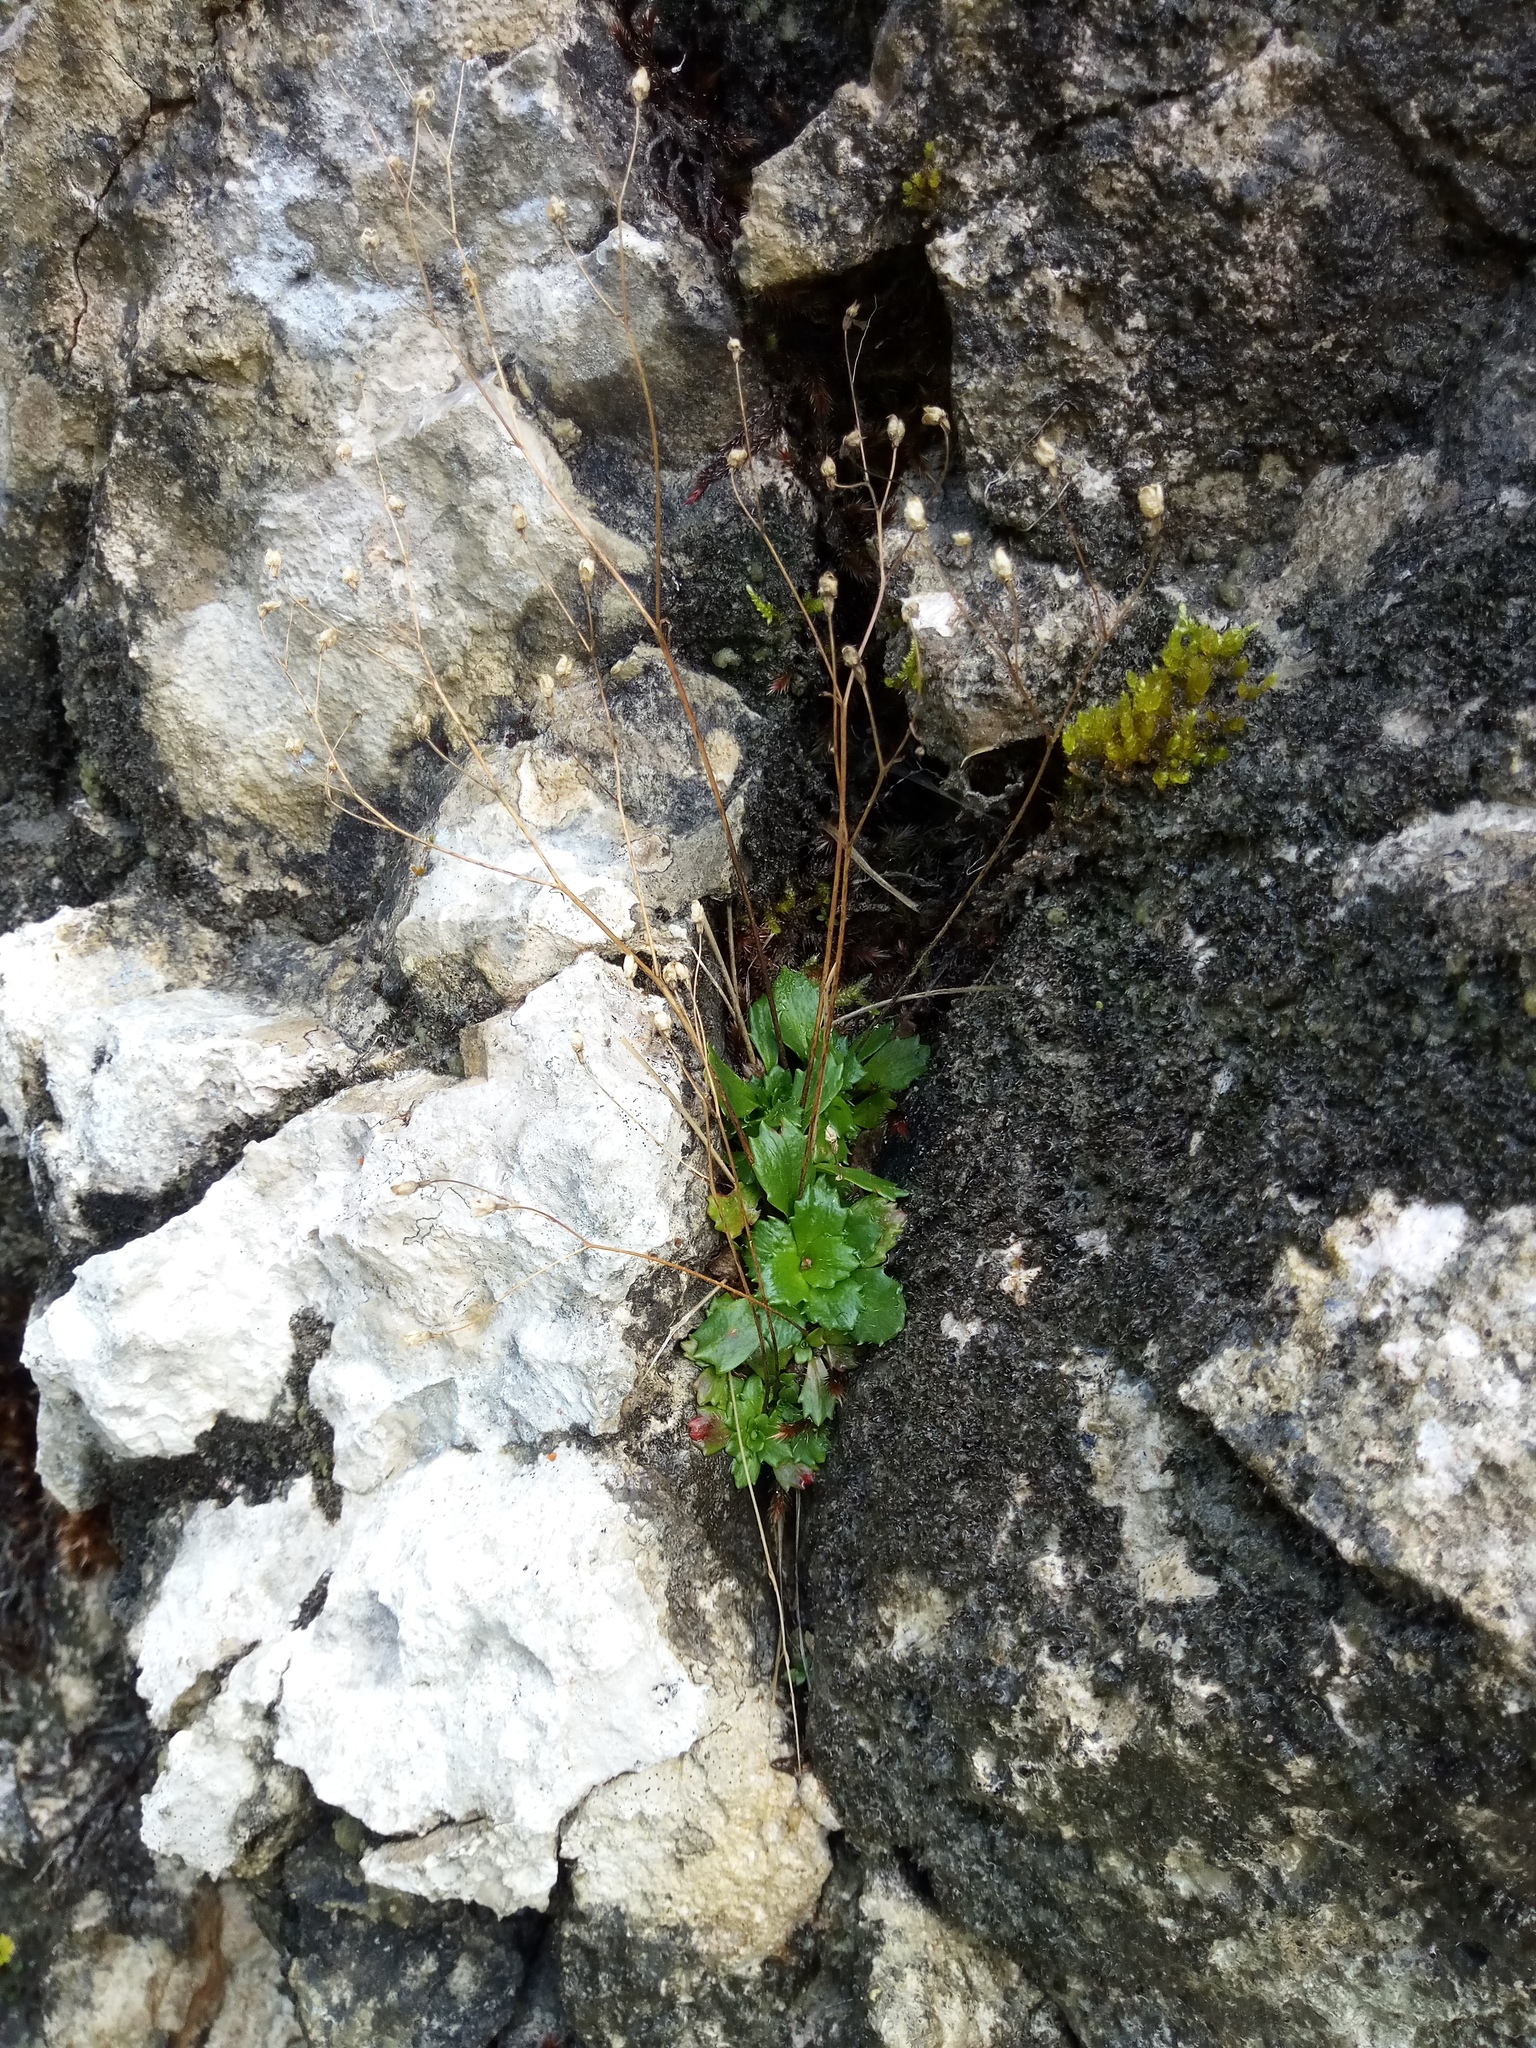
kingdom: Plantae
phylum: Tracheophyta
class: Magnoliopsida
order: Saxifragales
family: Saxifragaceae
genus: Micranthes
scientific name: Micranthes stellaris
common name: Starry saxifrage
